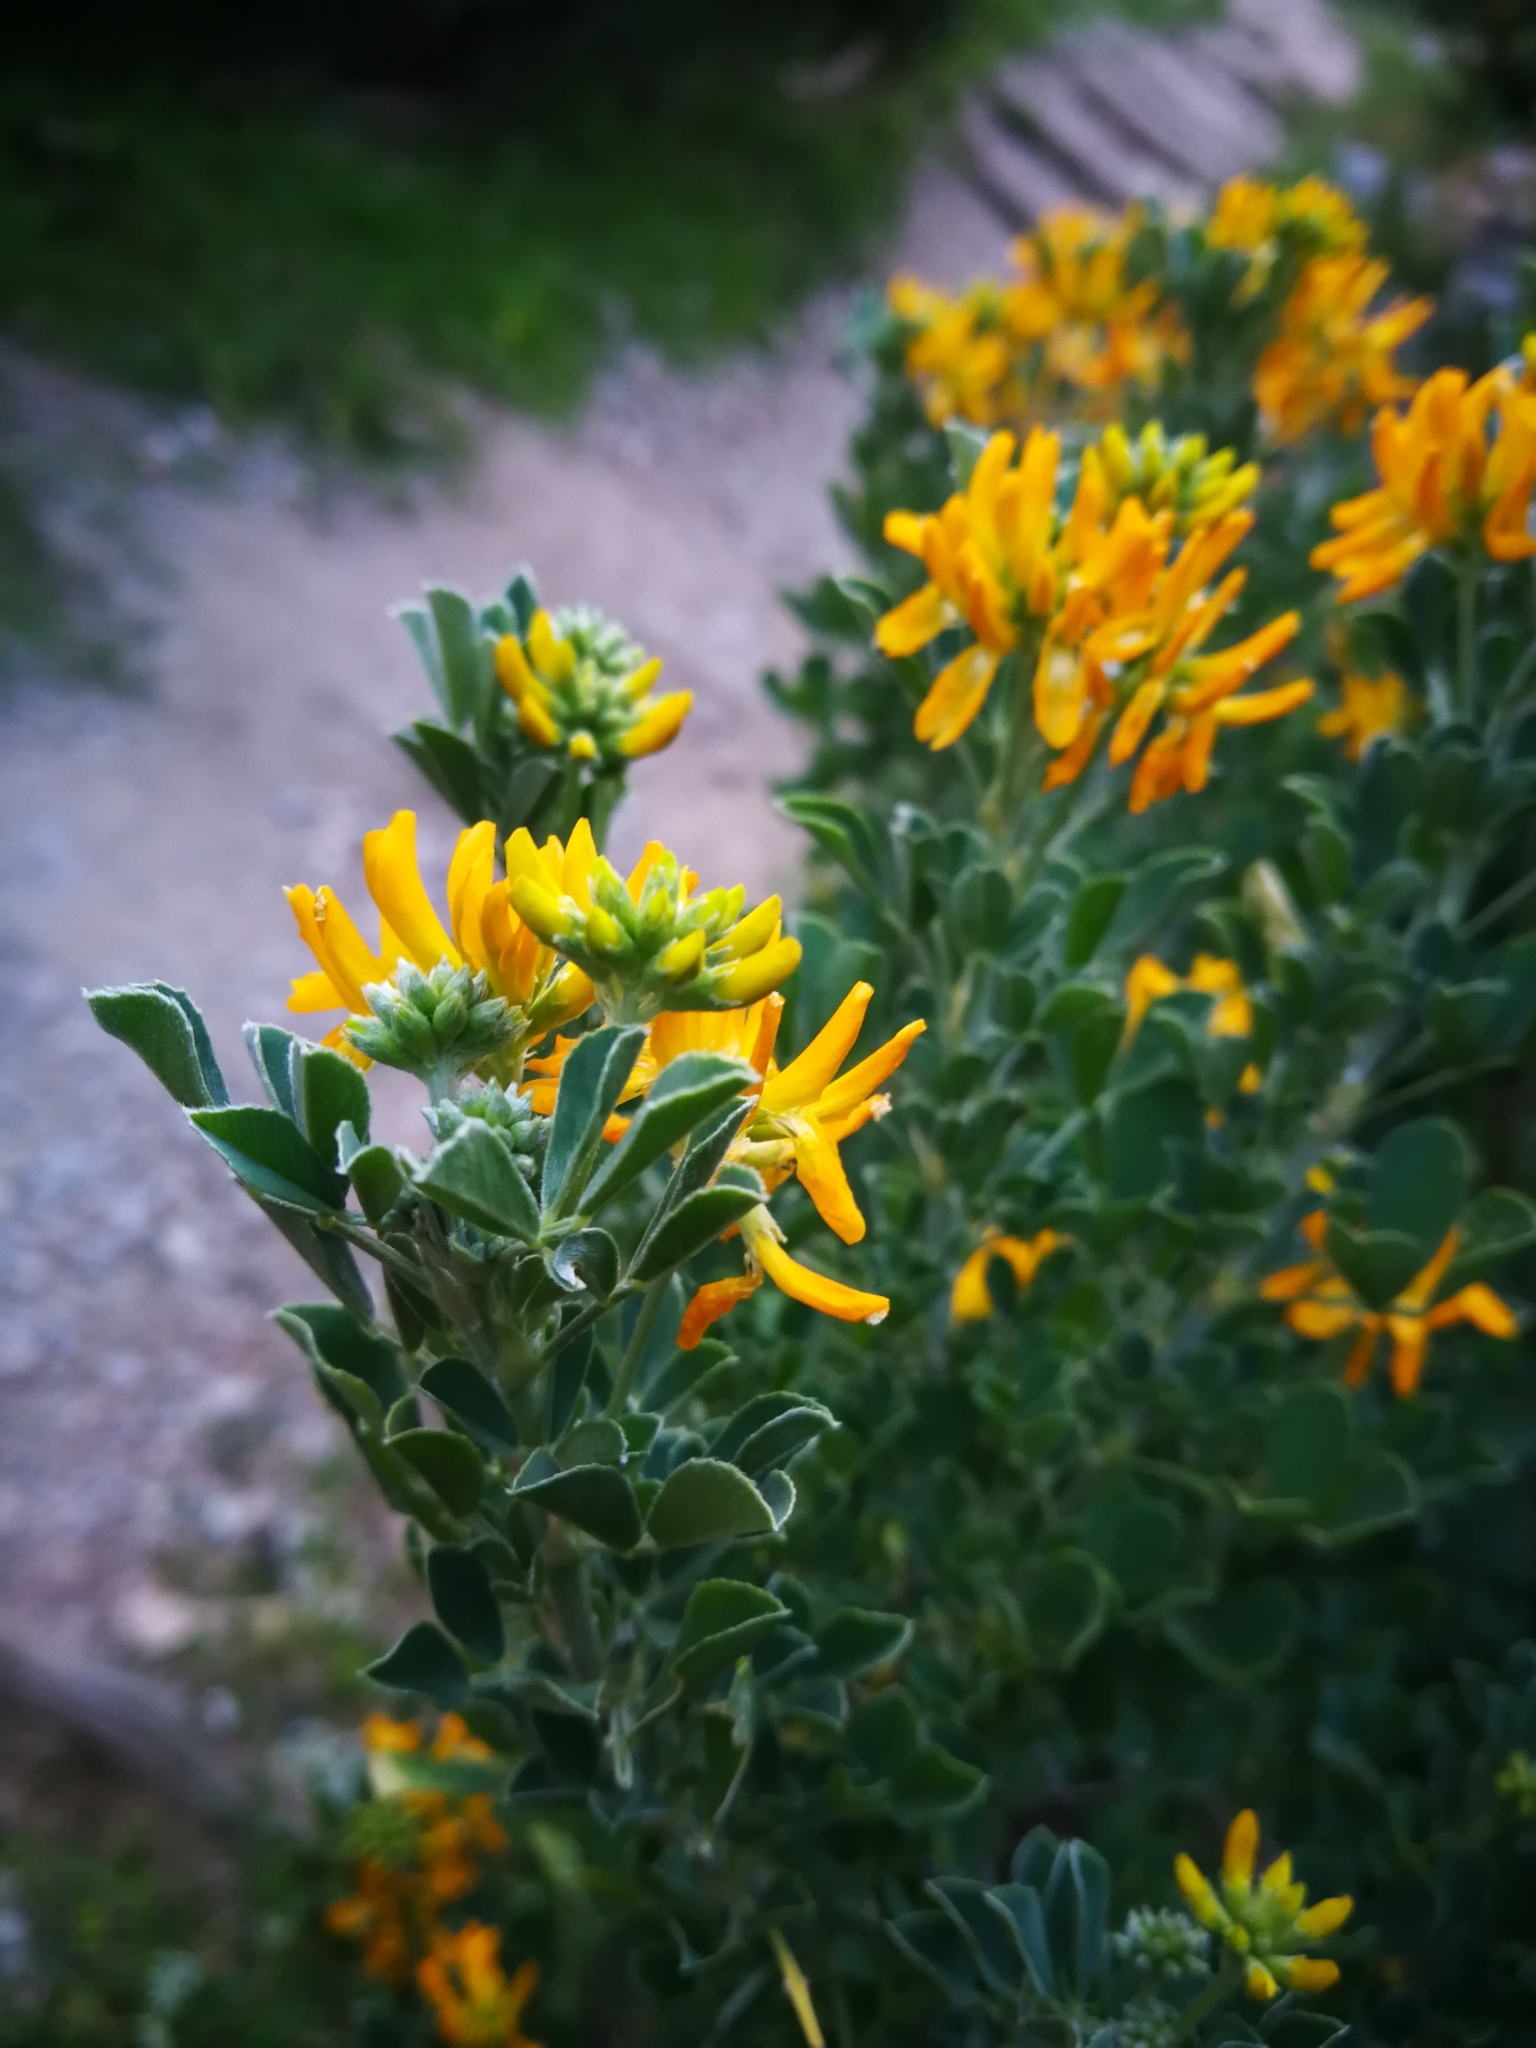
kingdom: Plantae
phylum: Tracheophyta
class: Magnoliopsida
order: Fabales
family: Fabaceae
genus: Medicago
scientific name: Medicago arborea
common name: Moon trefoil
